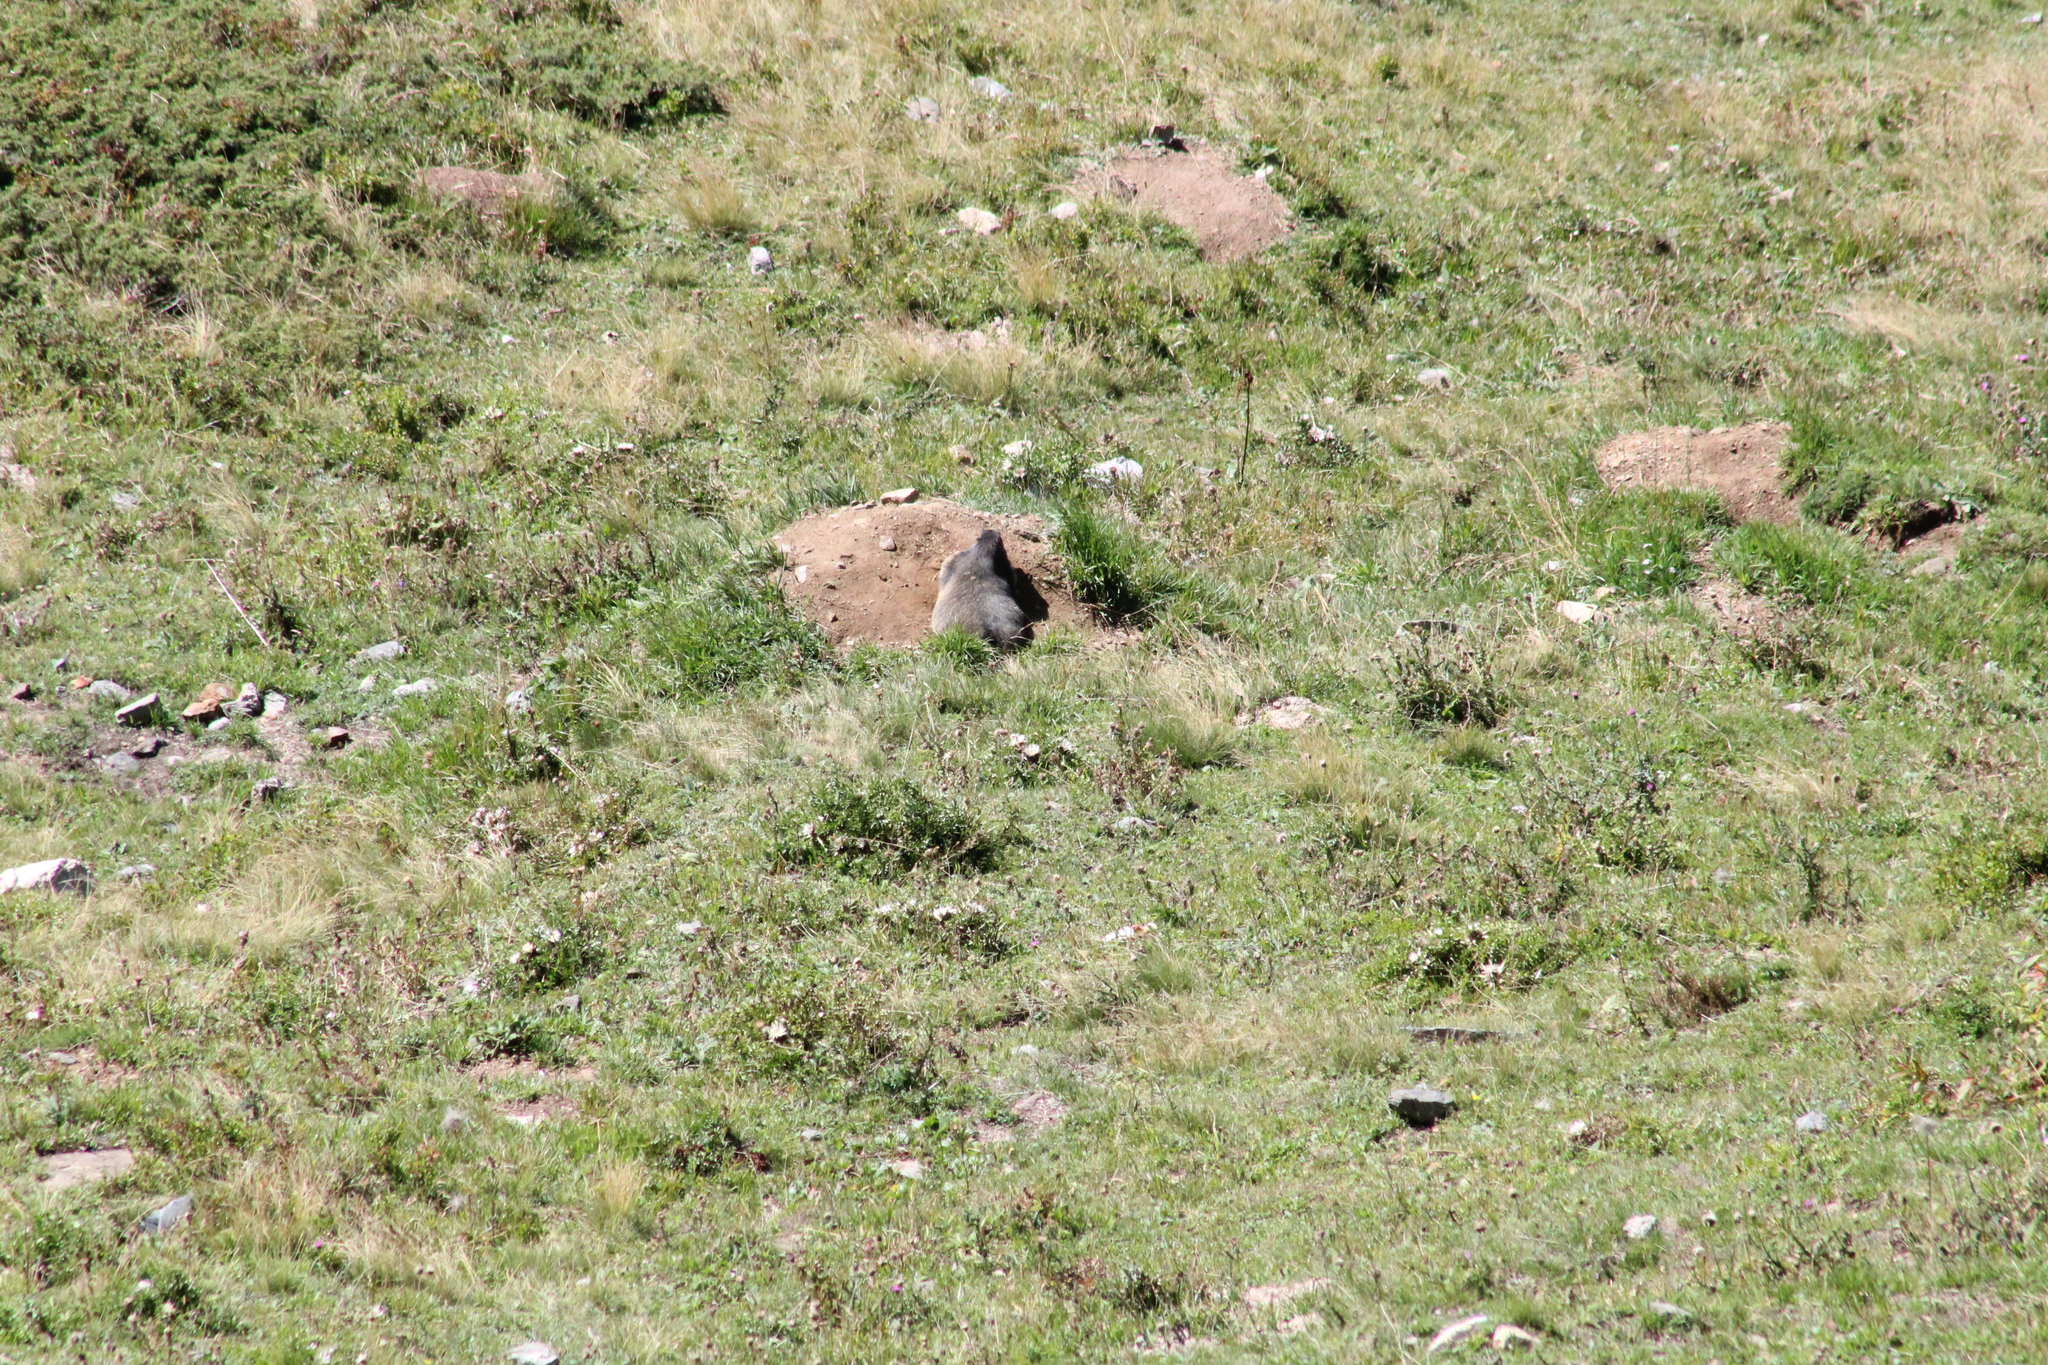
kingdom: Animalia
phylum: Chordata
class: Mammalia
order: Rodentia
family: Sciuridae
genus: Marmota
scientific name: Marmota marmota
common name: Alpine marmot
